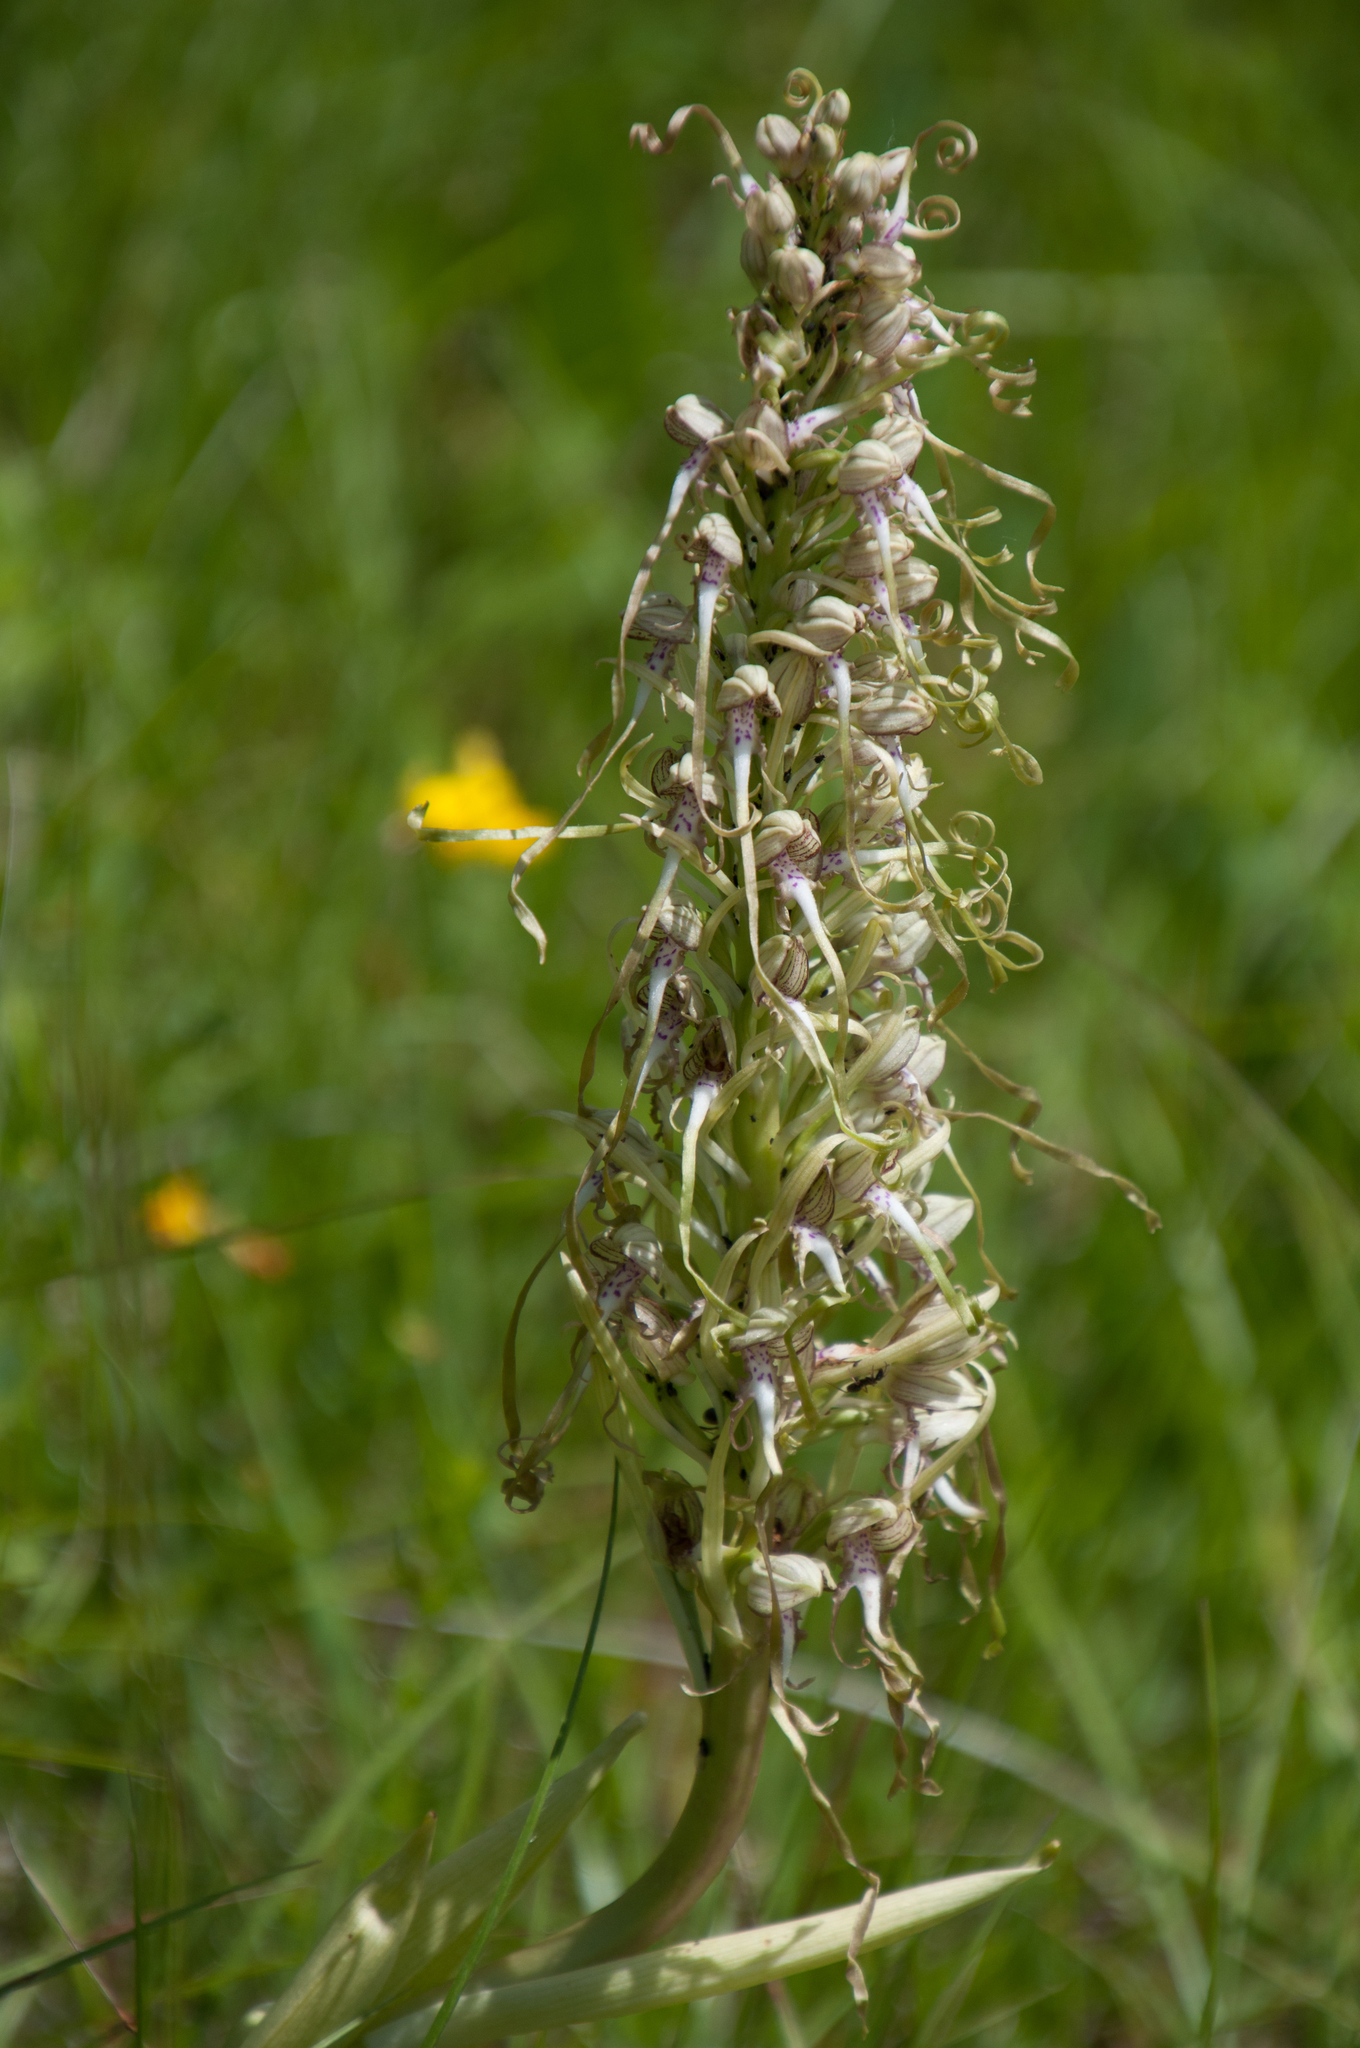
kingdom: Plantae
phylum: Tracheophyta
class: Liliopsida
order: Asparagales
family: Orchidaceae
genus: Himantoglossum
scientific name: Himantoglossum hircinum
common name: Lizard orchid
